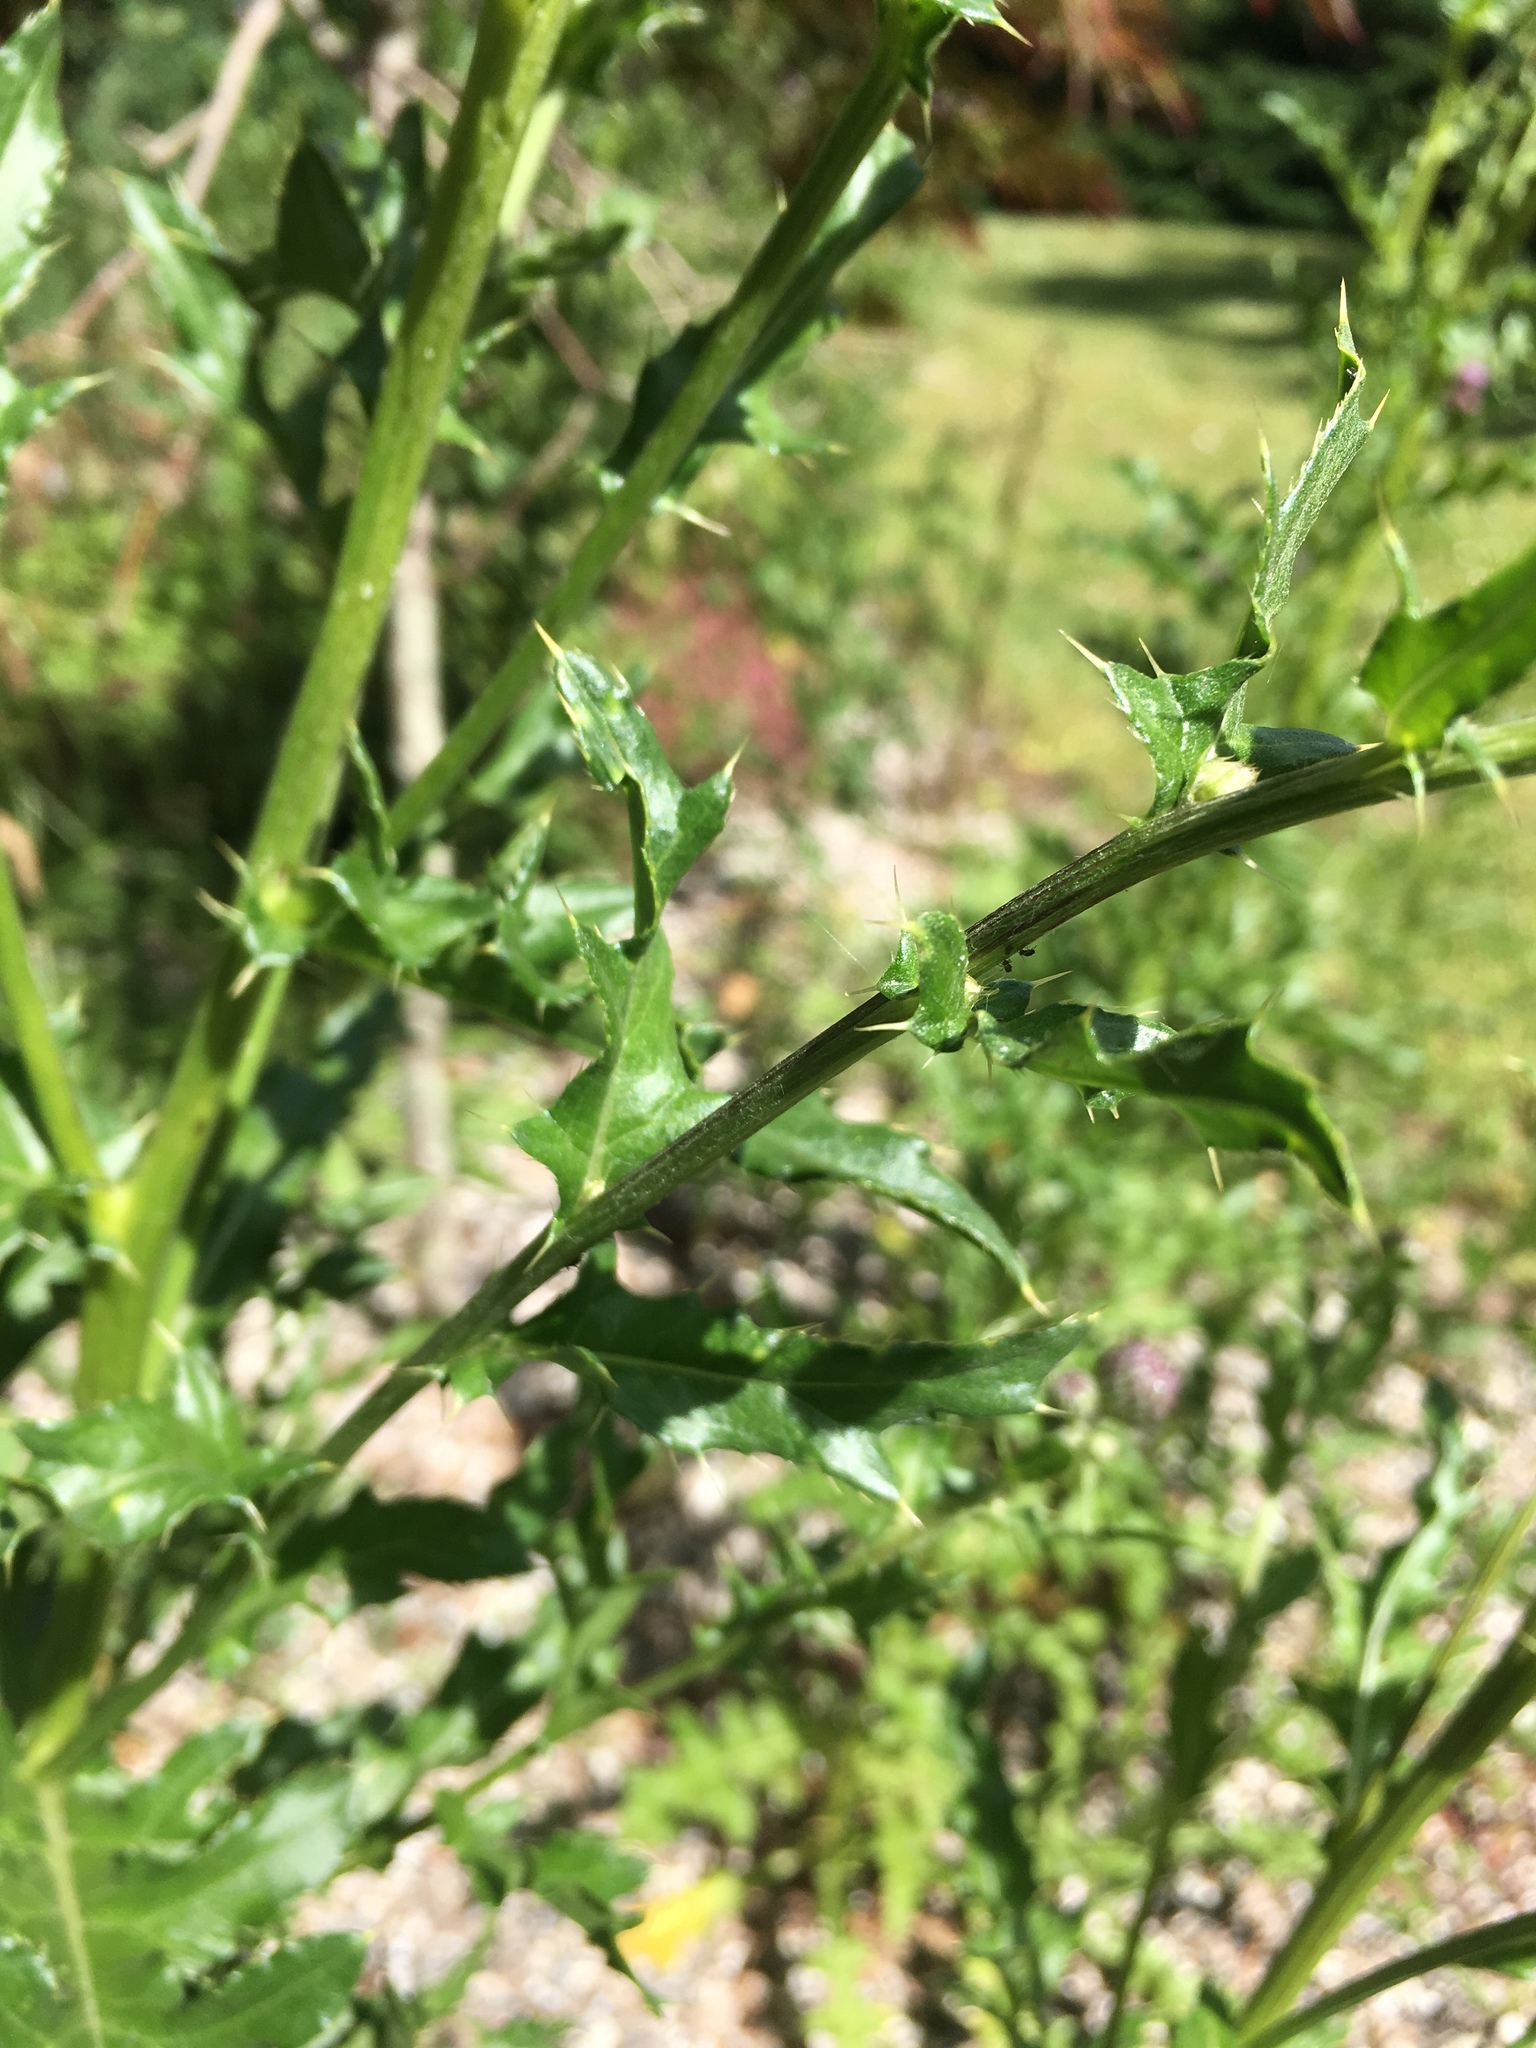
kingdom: Plantae
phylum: Tracheophyta
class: Magnoliopsida
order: Asterales
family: Asteraceae
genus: Cirsium
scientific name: Cirsium arvense
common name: Creeping thistle
